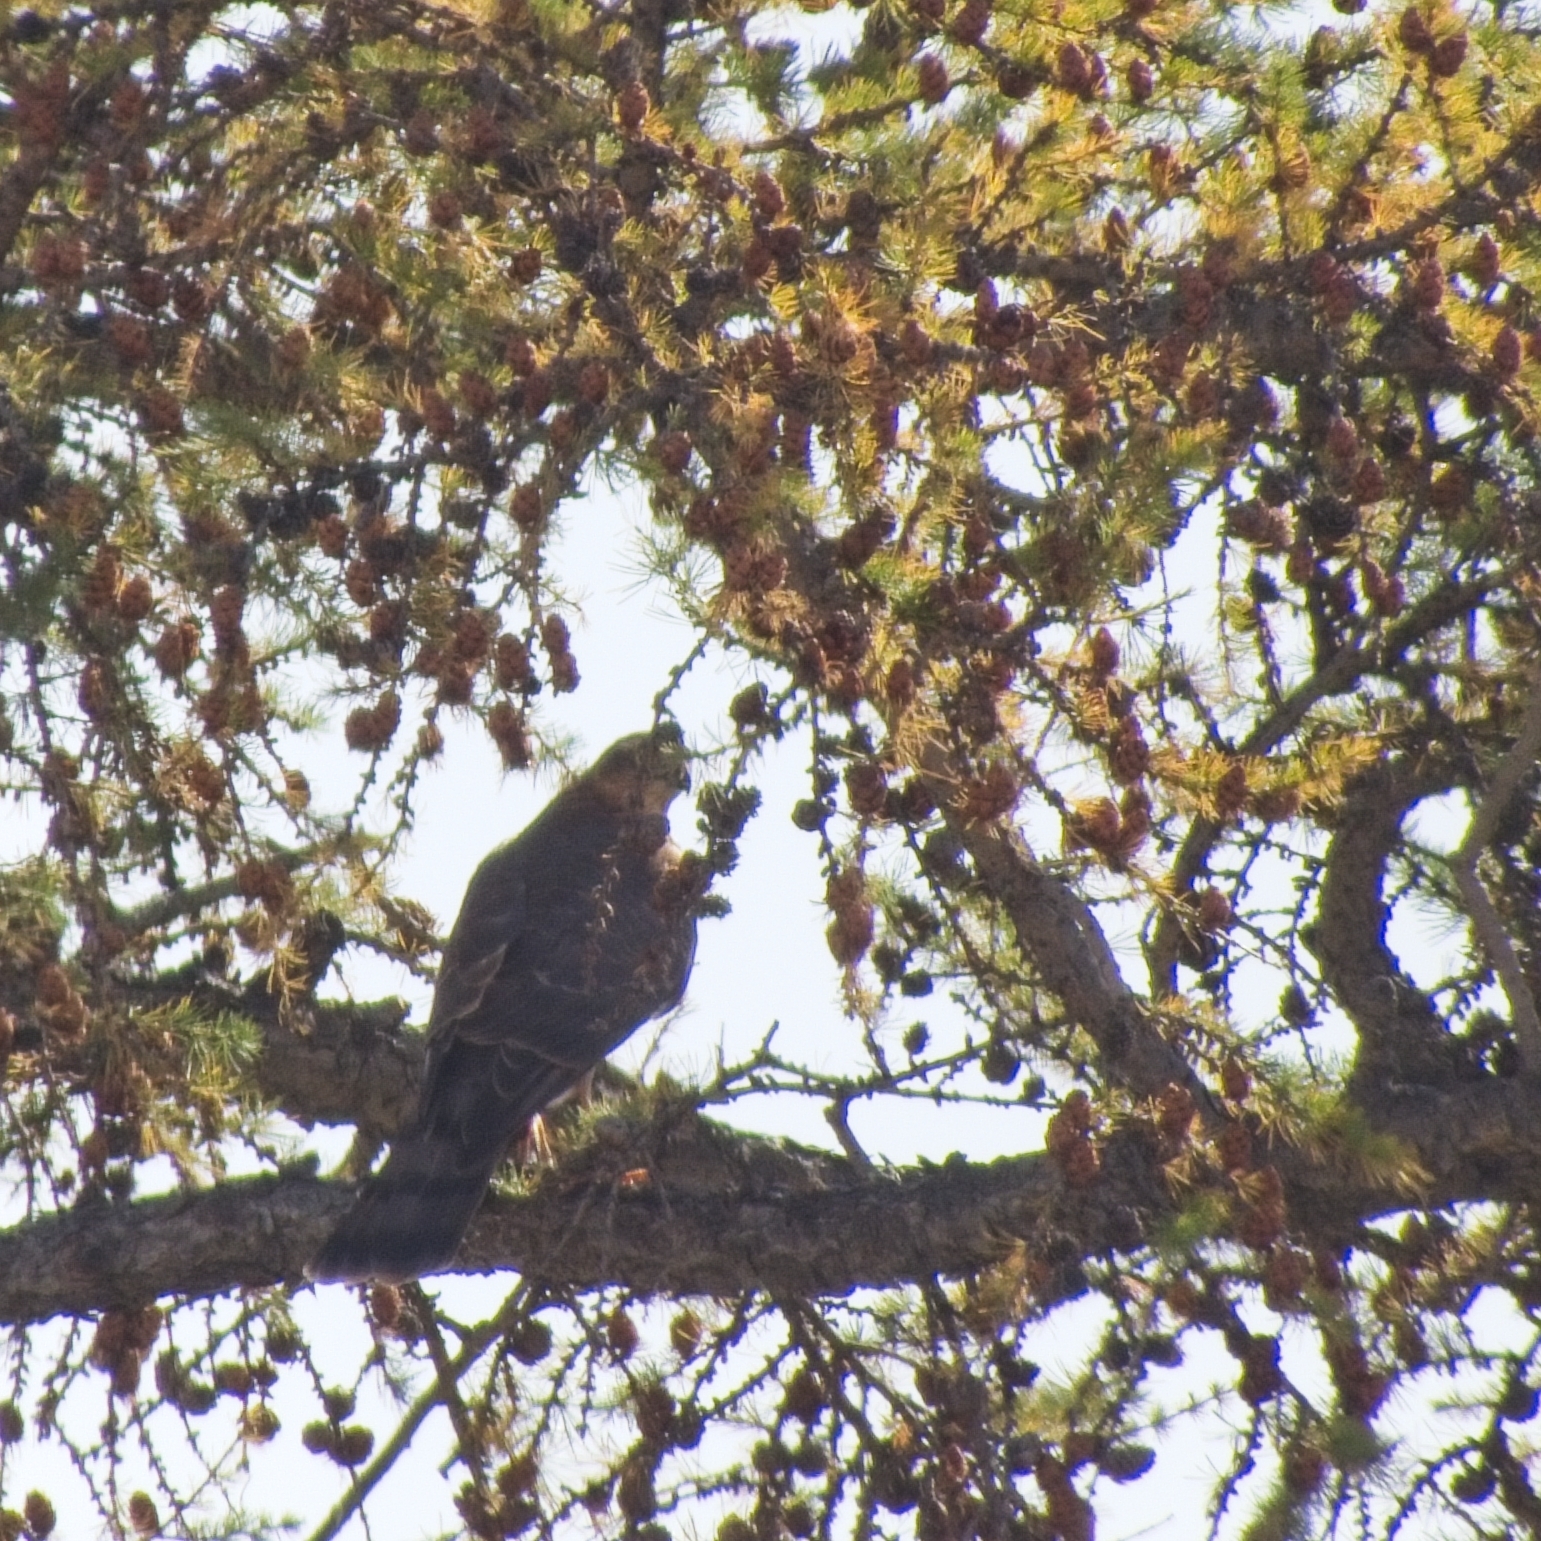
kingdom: Animalia
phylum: Chordata
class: Aves
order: Accipitriformes
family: Accipitridae
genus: Accipiter
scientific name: Accipiter nisus
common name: Eurasian sparrowhawk
